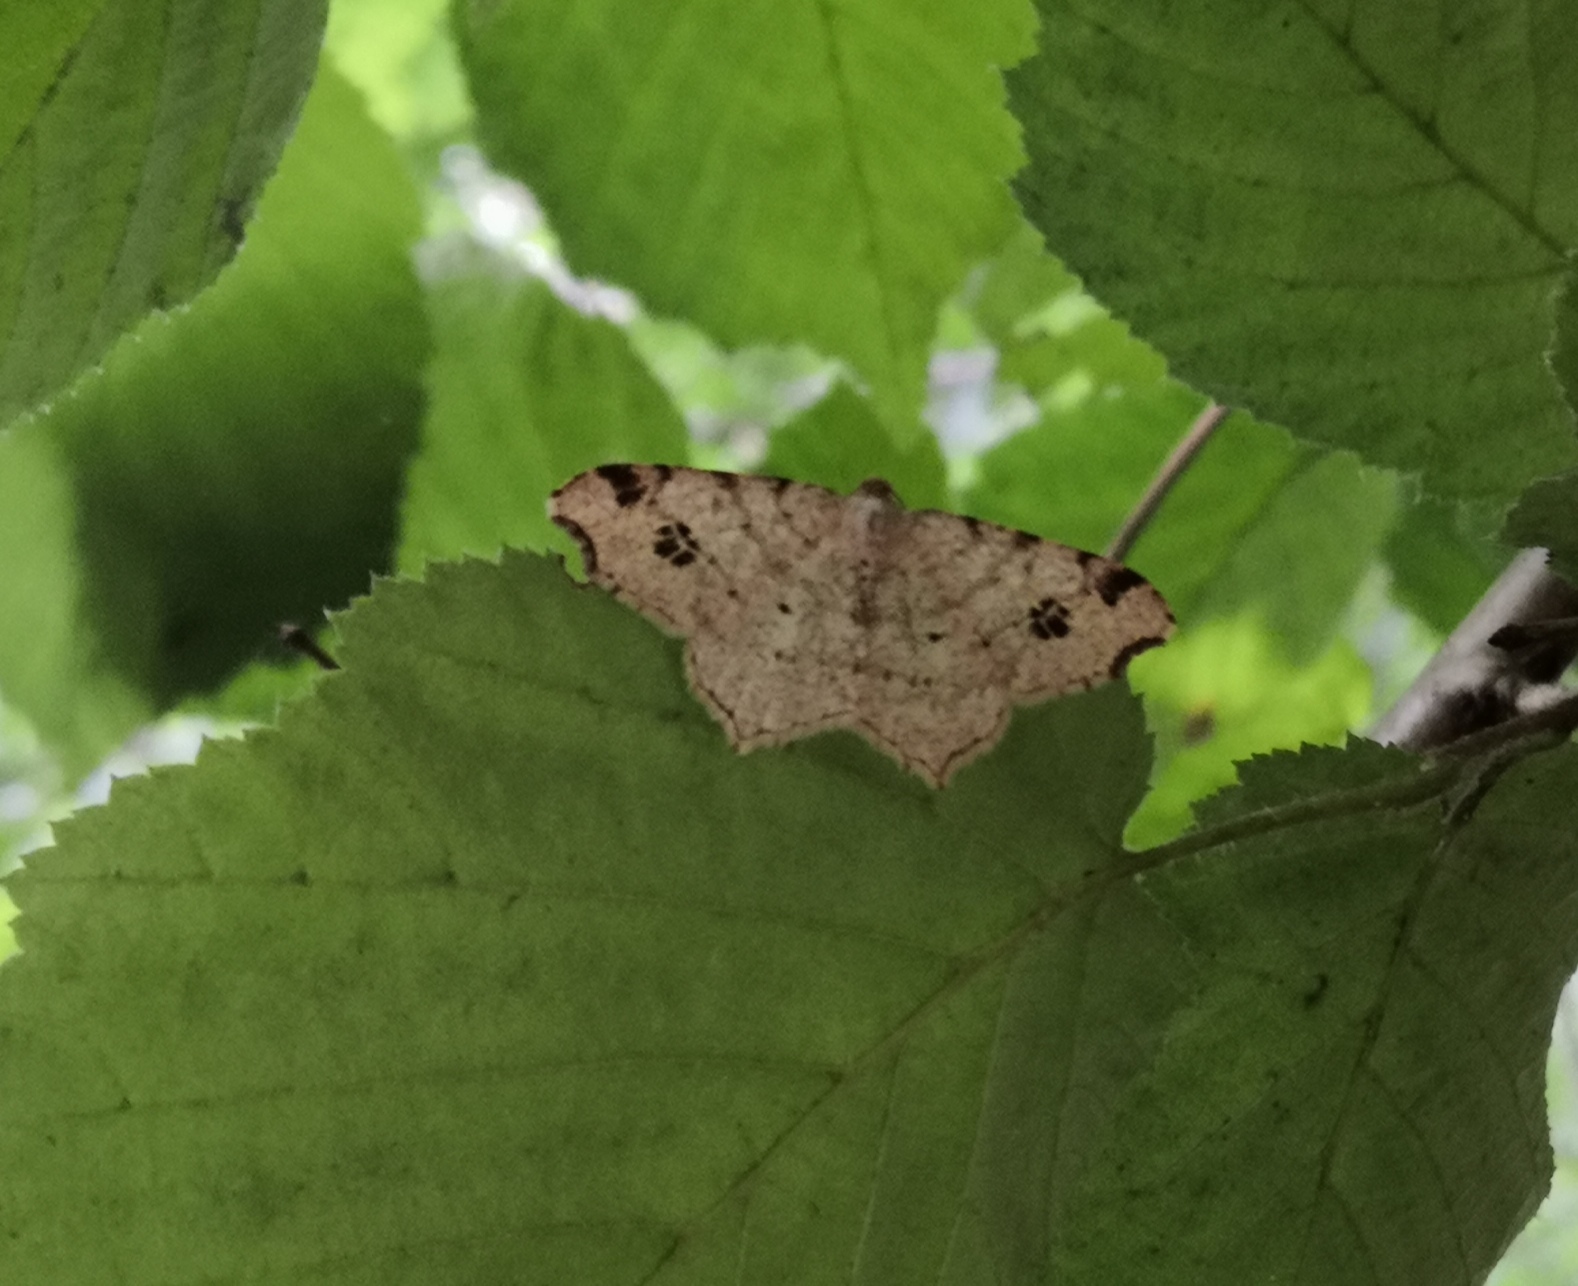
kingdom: Animalia
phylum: Arthropoda
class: Insecta
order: Lepidoptera
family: Geometridae
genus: Macaria
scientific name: Macaria notata
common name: Peacock moth
